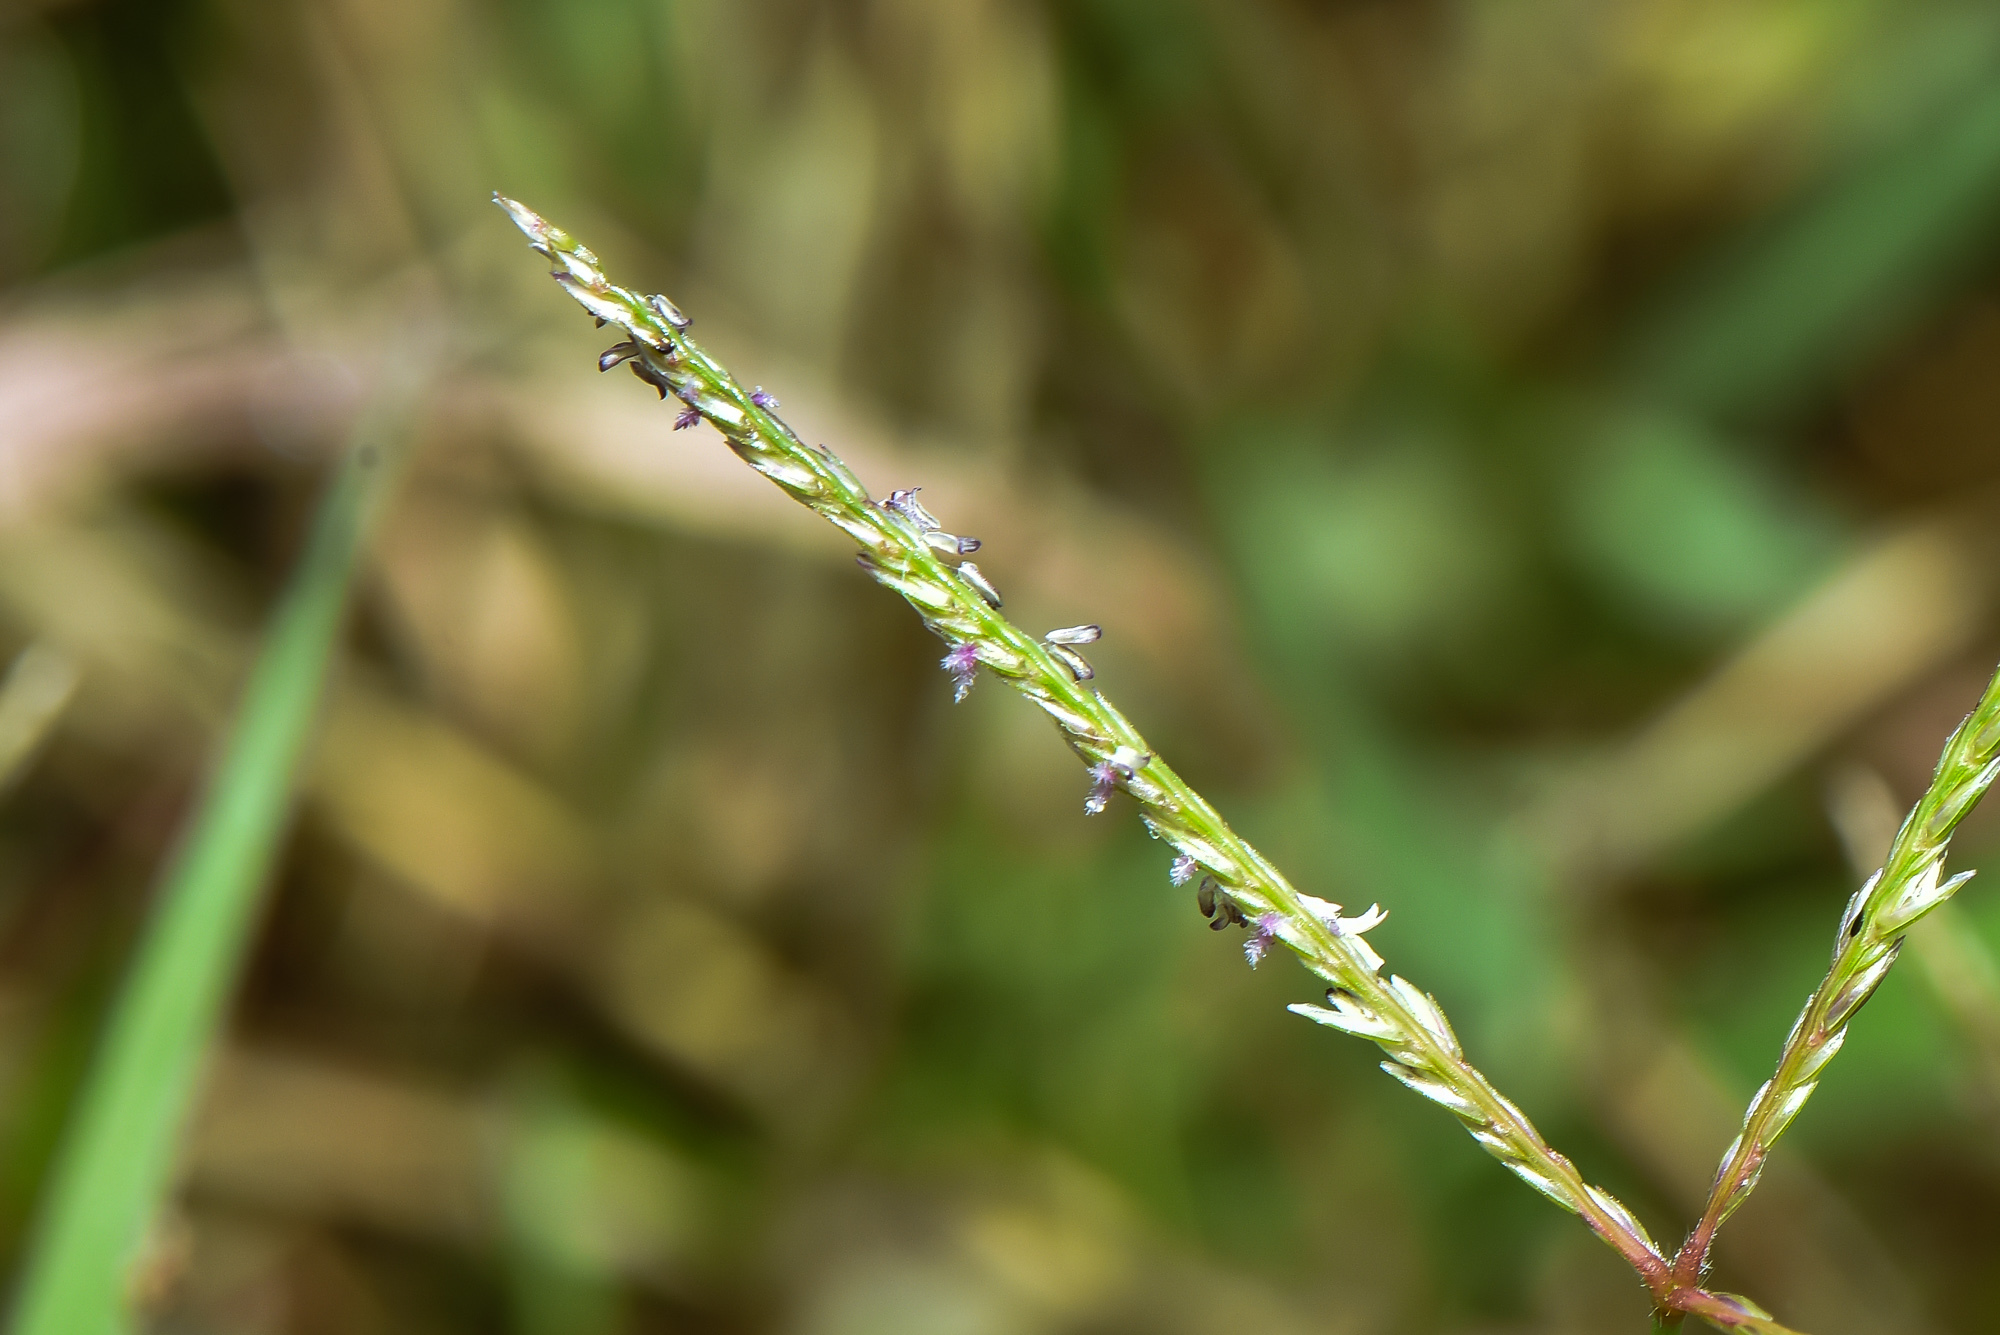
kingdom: Plantae
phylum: Tracheophyta
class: Liliopsida
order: Poales
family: Poaceae
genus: Cynodon
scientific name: Cynodon dactylon
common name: Bermuda grass
